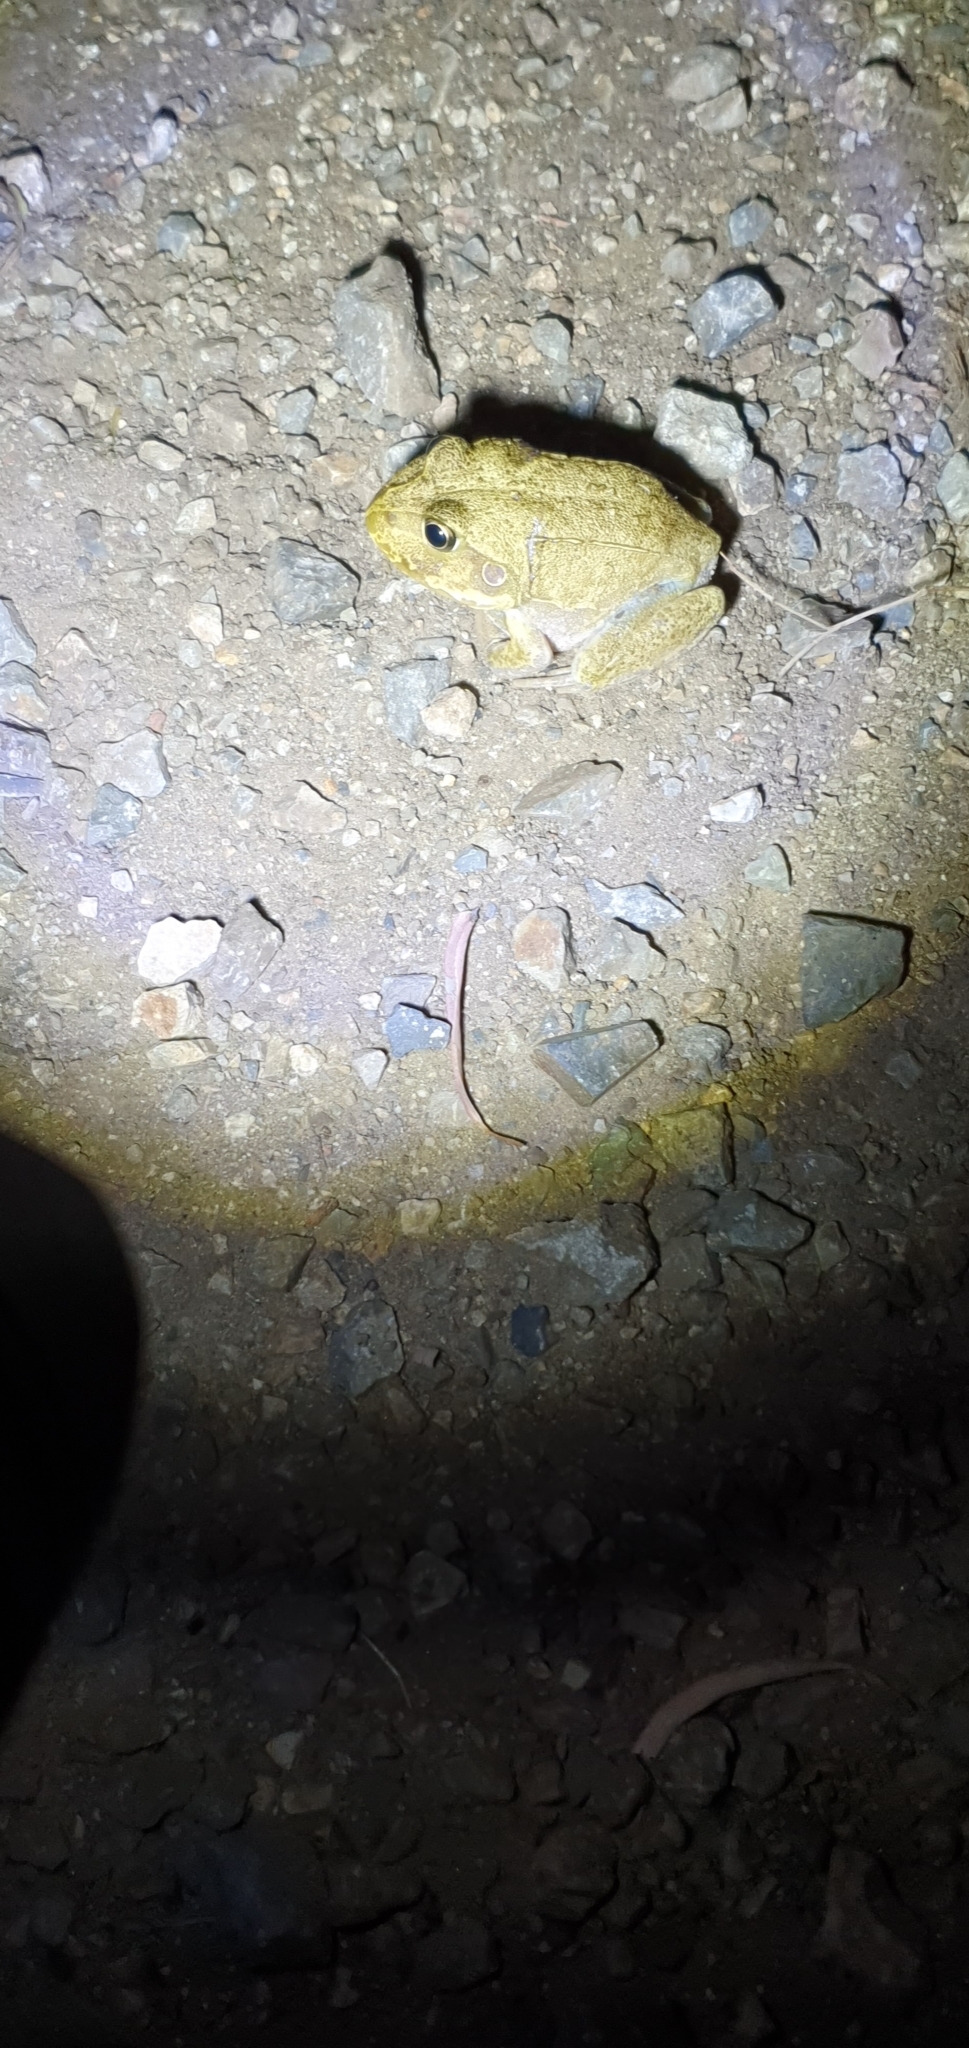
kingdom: Animalia
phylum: Chordata
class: Amphibia
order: Anura
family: Pelodryadidae
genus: Ranoidea
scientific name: Ranoidea novaehollandiae
